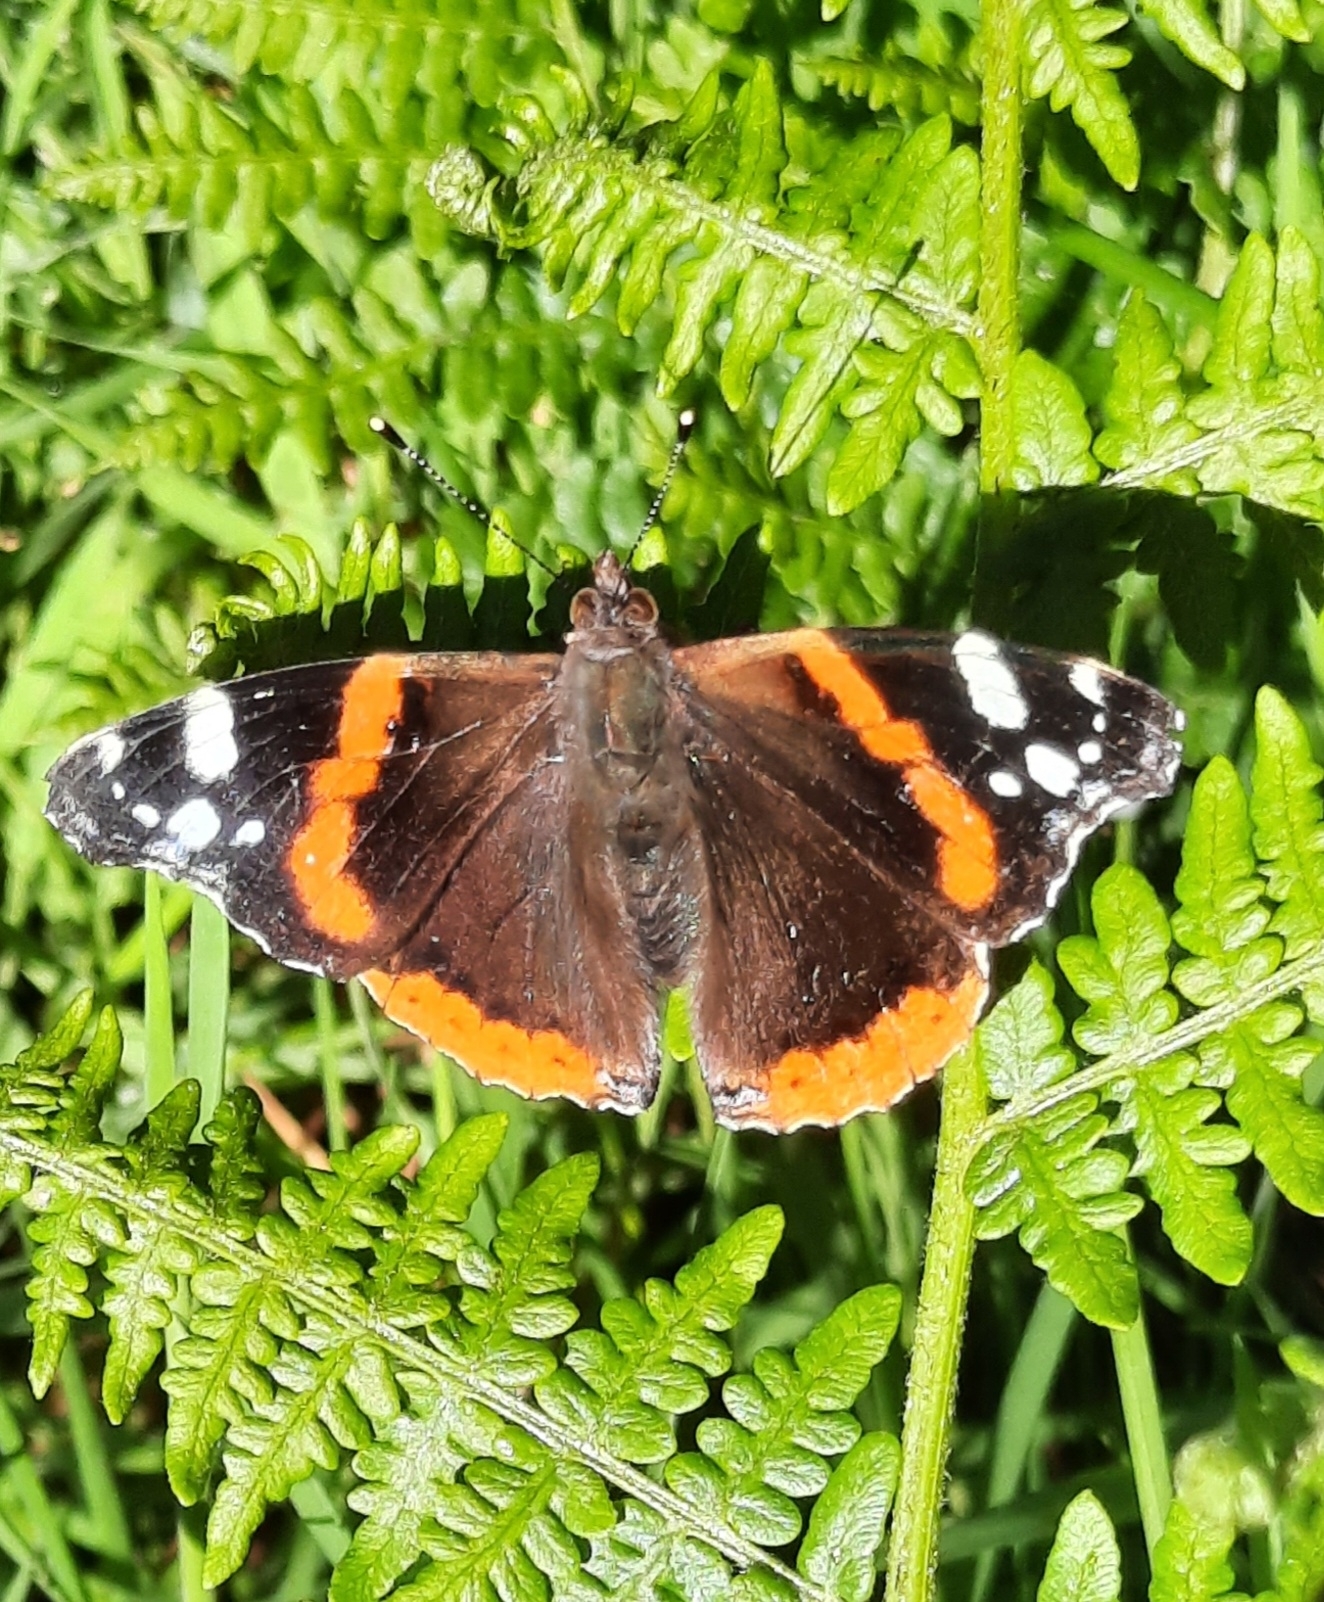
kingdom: Animalia
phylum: Arthropoda
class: Insecta
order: Lepidoptera
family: Nymphalidae
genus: Vanessa
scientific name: Vanessa atalanta
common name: Red admiral
